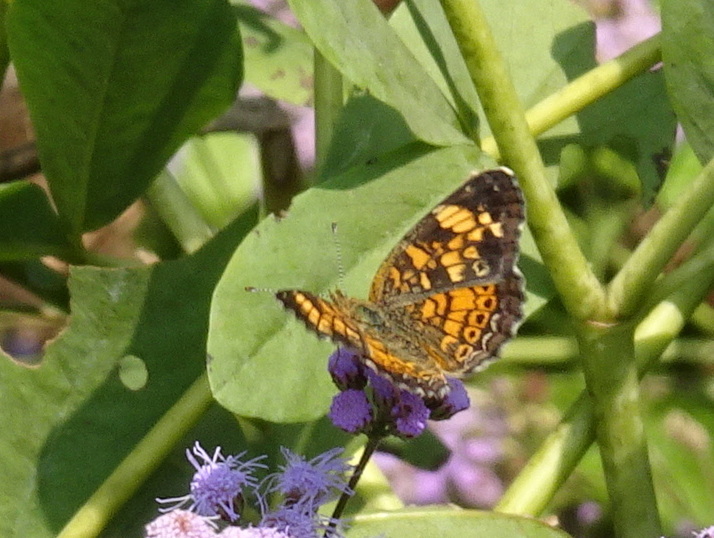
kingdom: Animalia
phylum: Arthropoda
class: Insecta
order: Lepidoptera
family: Nymphalidae
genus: Phyciodes
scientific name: Phyciodes tharos
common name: Pearl crescent
